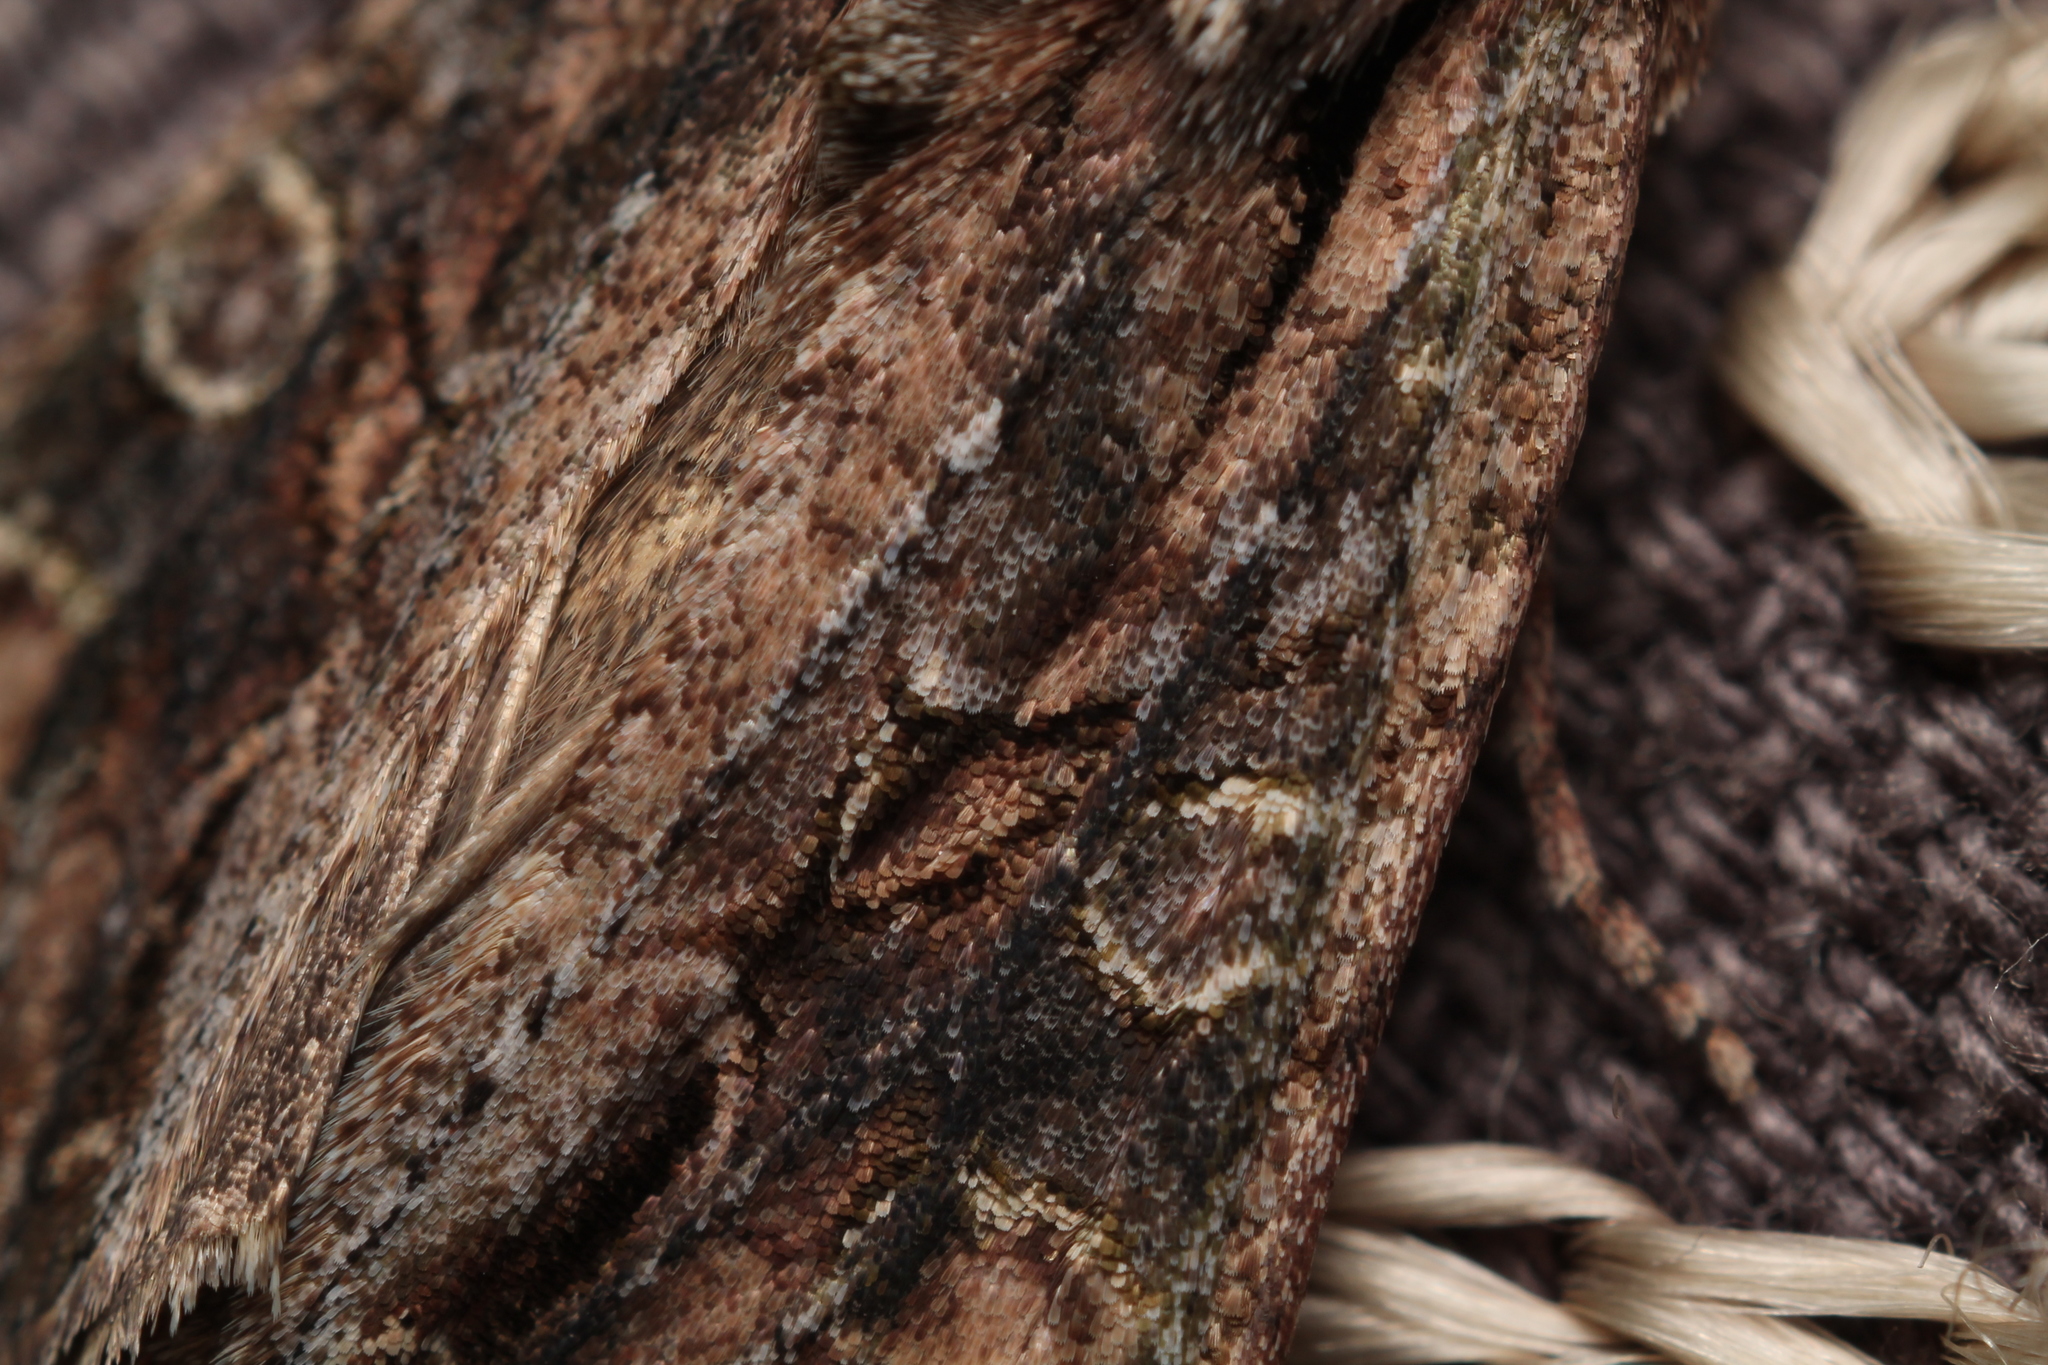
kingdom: Animalia
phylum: Arthropoda
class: Insecta
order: Lepidoptera
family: Noctuidae
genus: Ichneutica
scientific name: Ichneutica mutans
